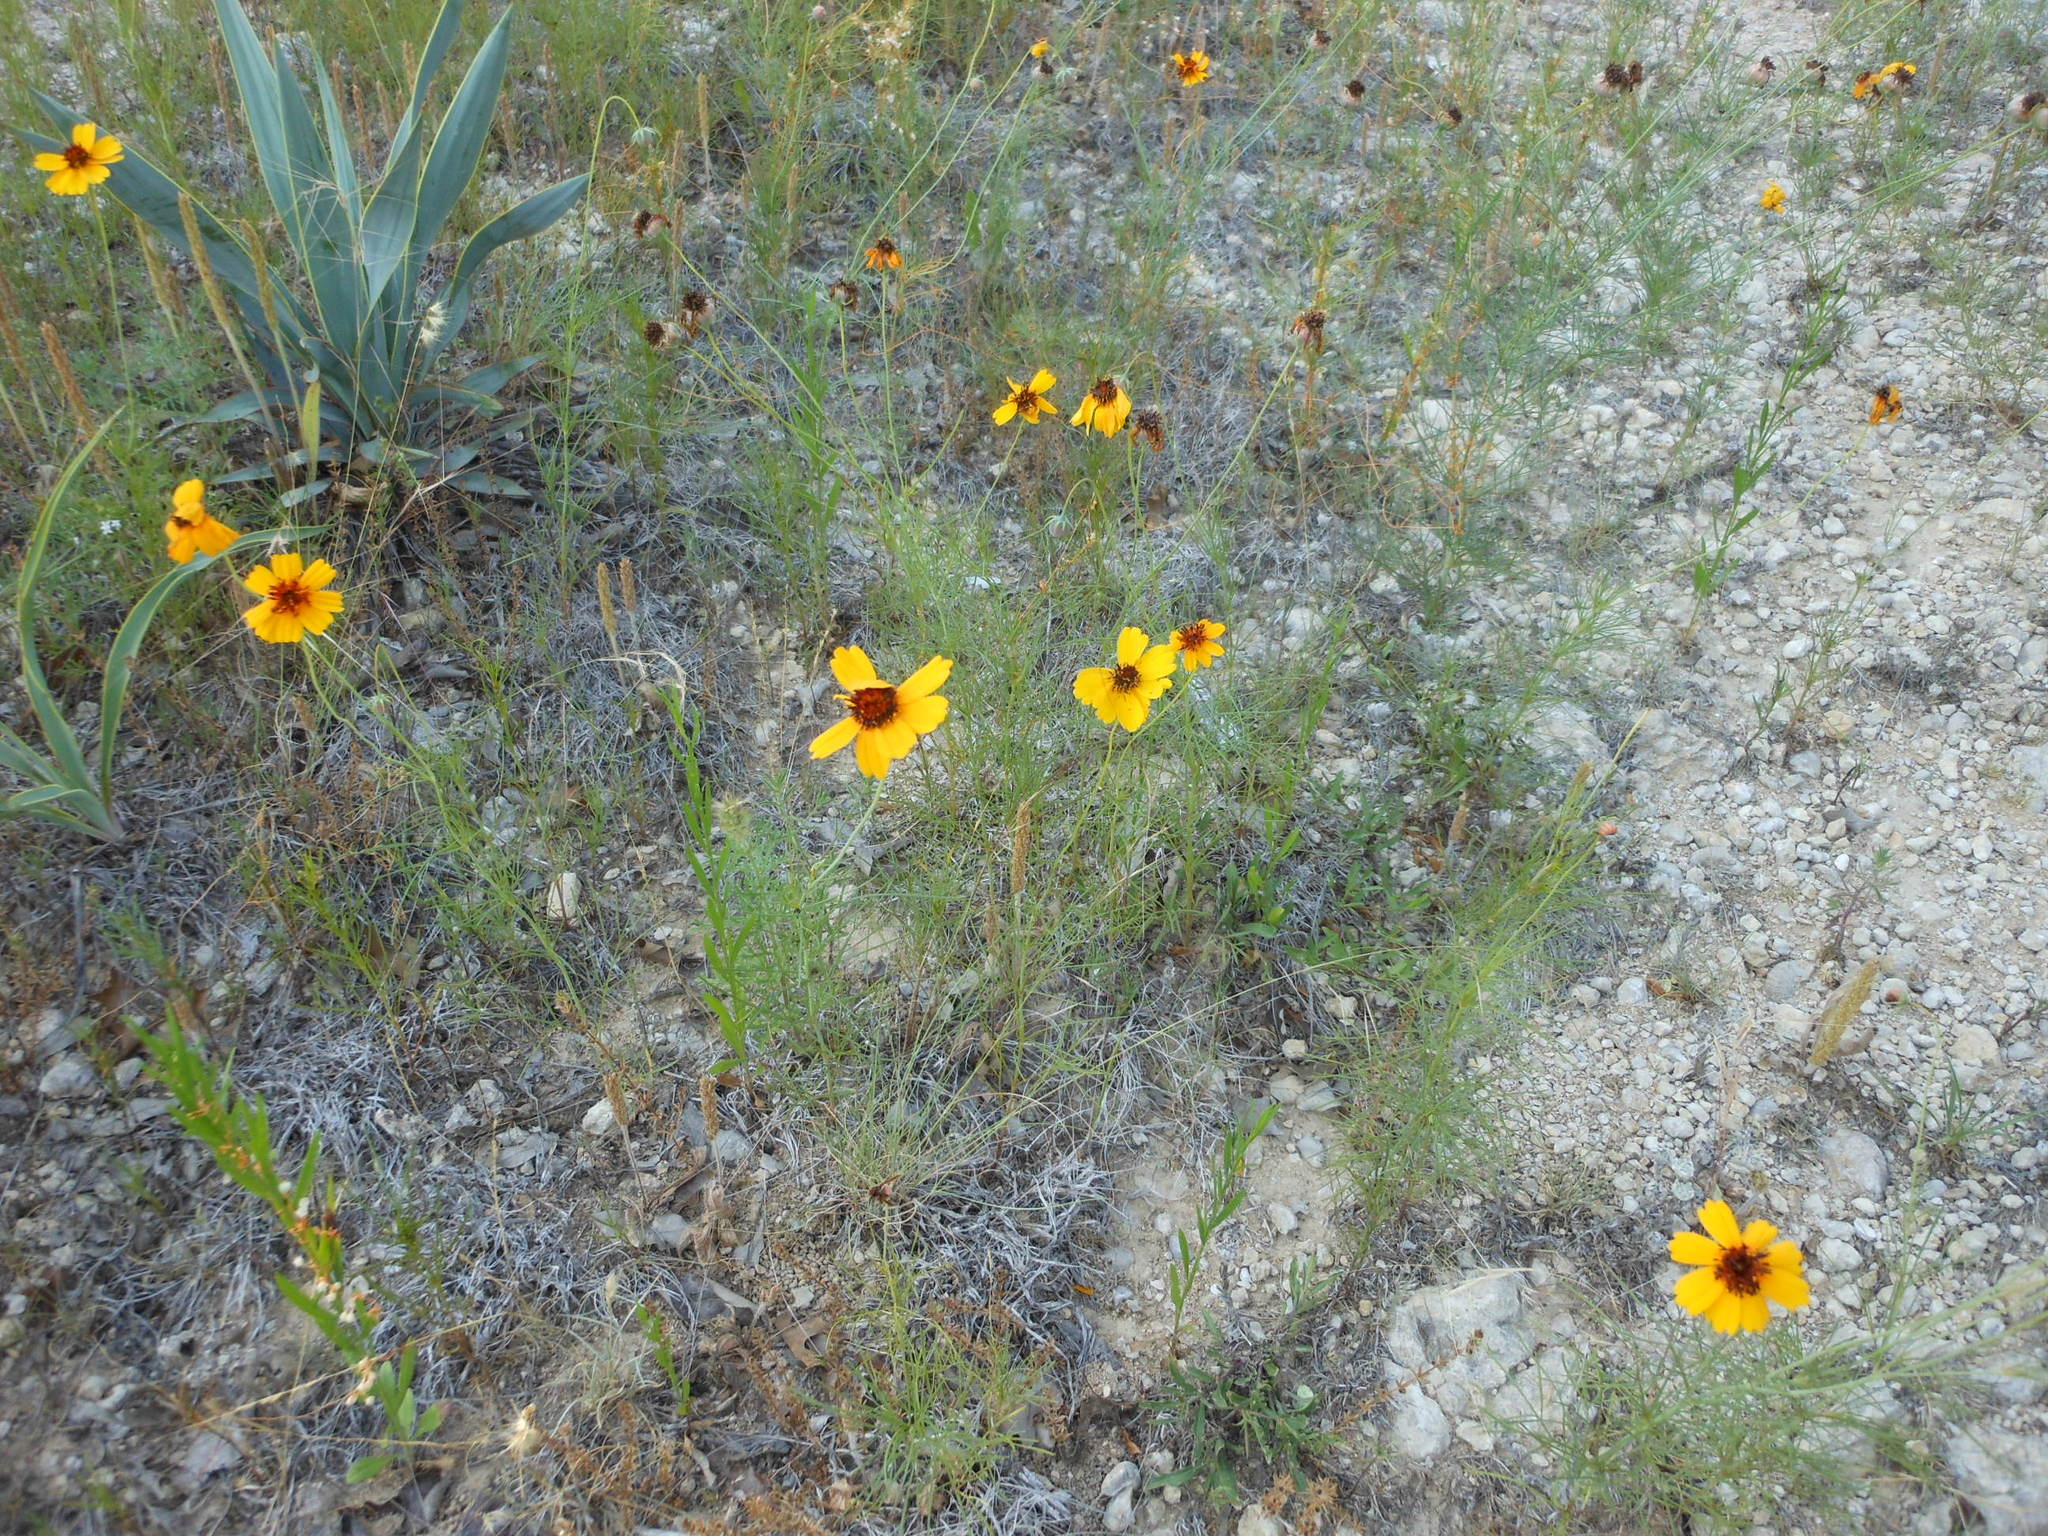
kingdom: Plantae
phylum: Tracheophyta
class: Magnoliopsida
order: Asterales
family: Asteraceae
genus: Thelesperma
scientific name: Thelesperma filifolium
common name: Stiff greenthread
